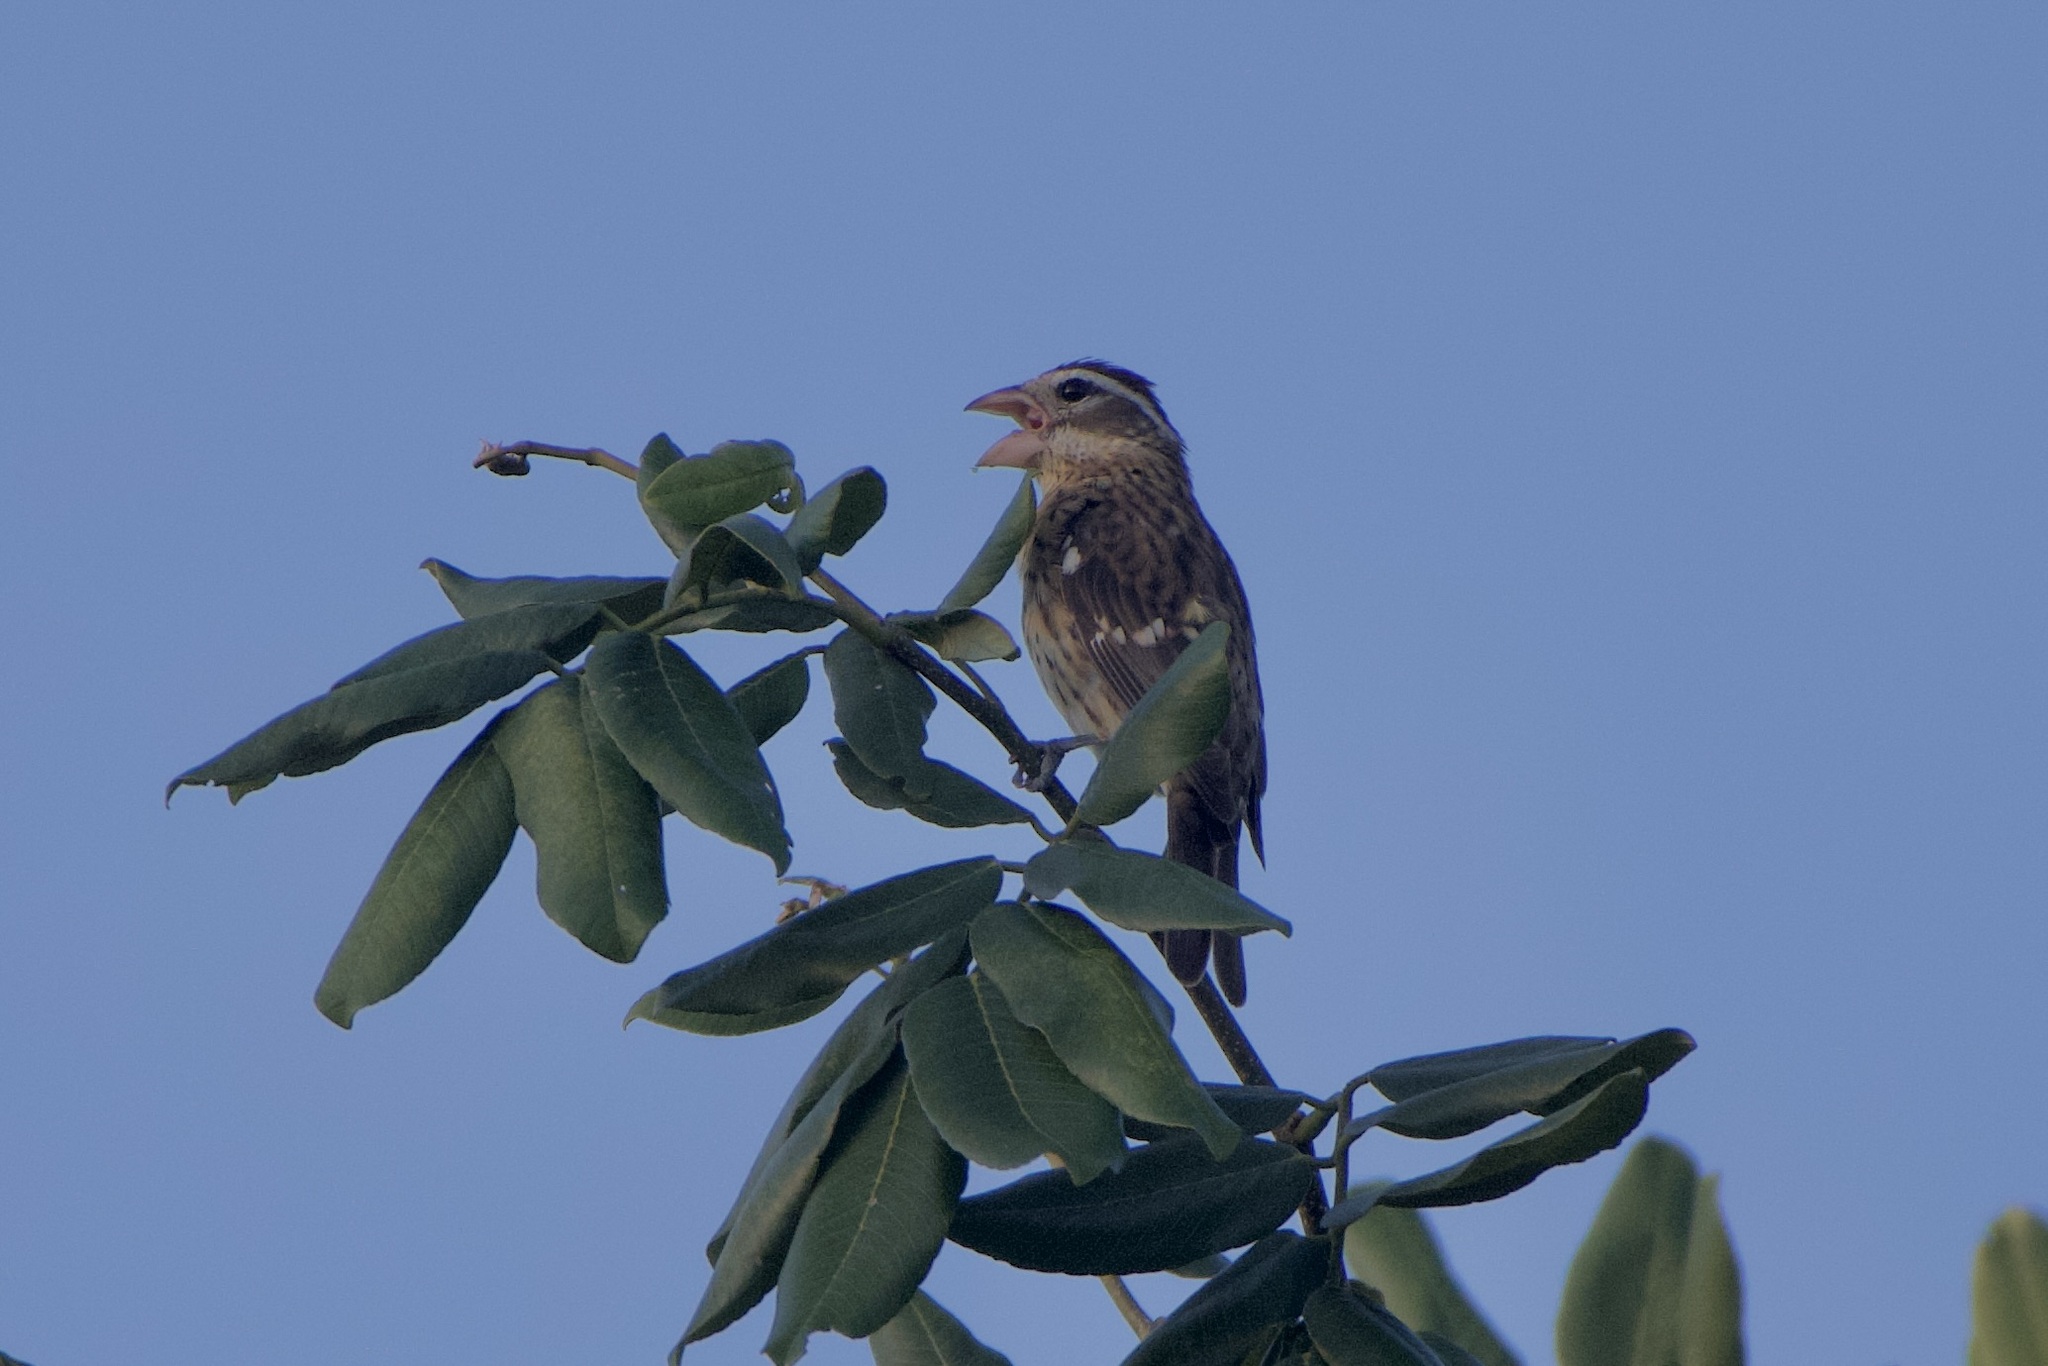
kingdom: Animalia
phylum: Chordata
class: Aves
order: Passeriformes
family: Cardinalidae
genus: Pheucticus
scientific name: Pheucticus ludovicianus
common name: Rose-breasted grosbeak
